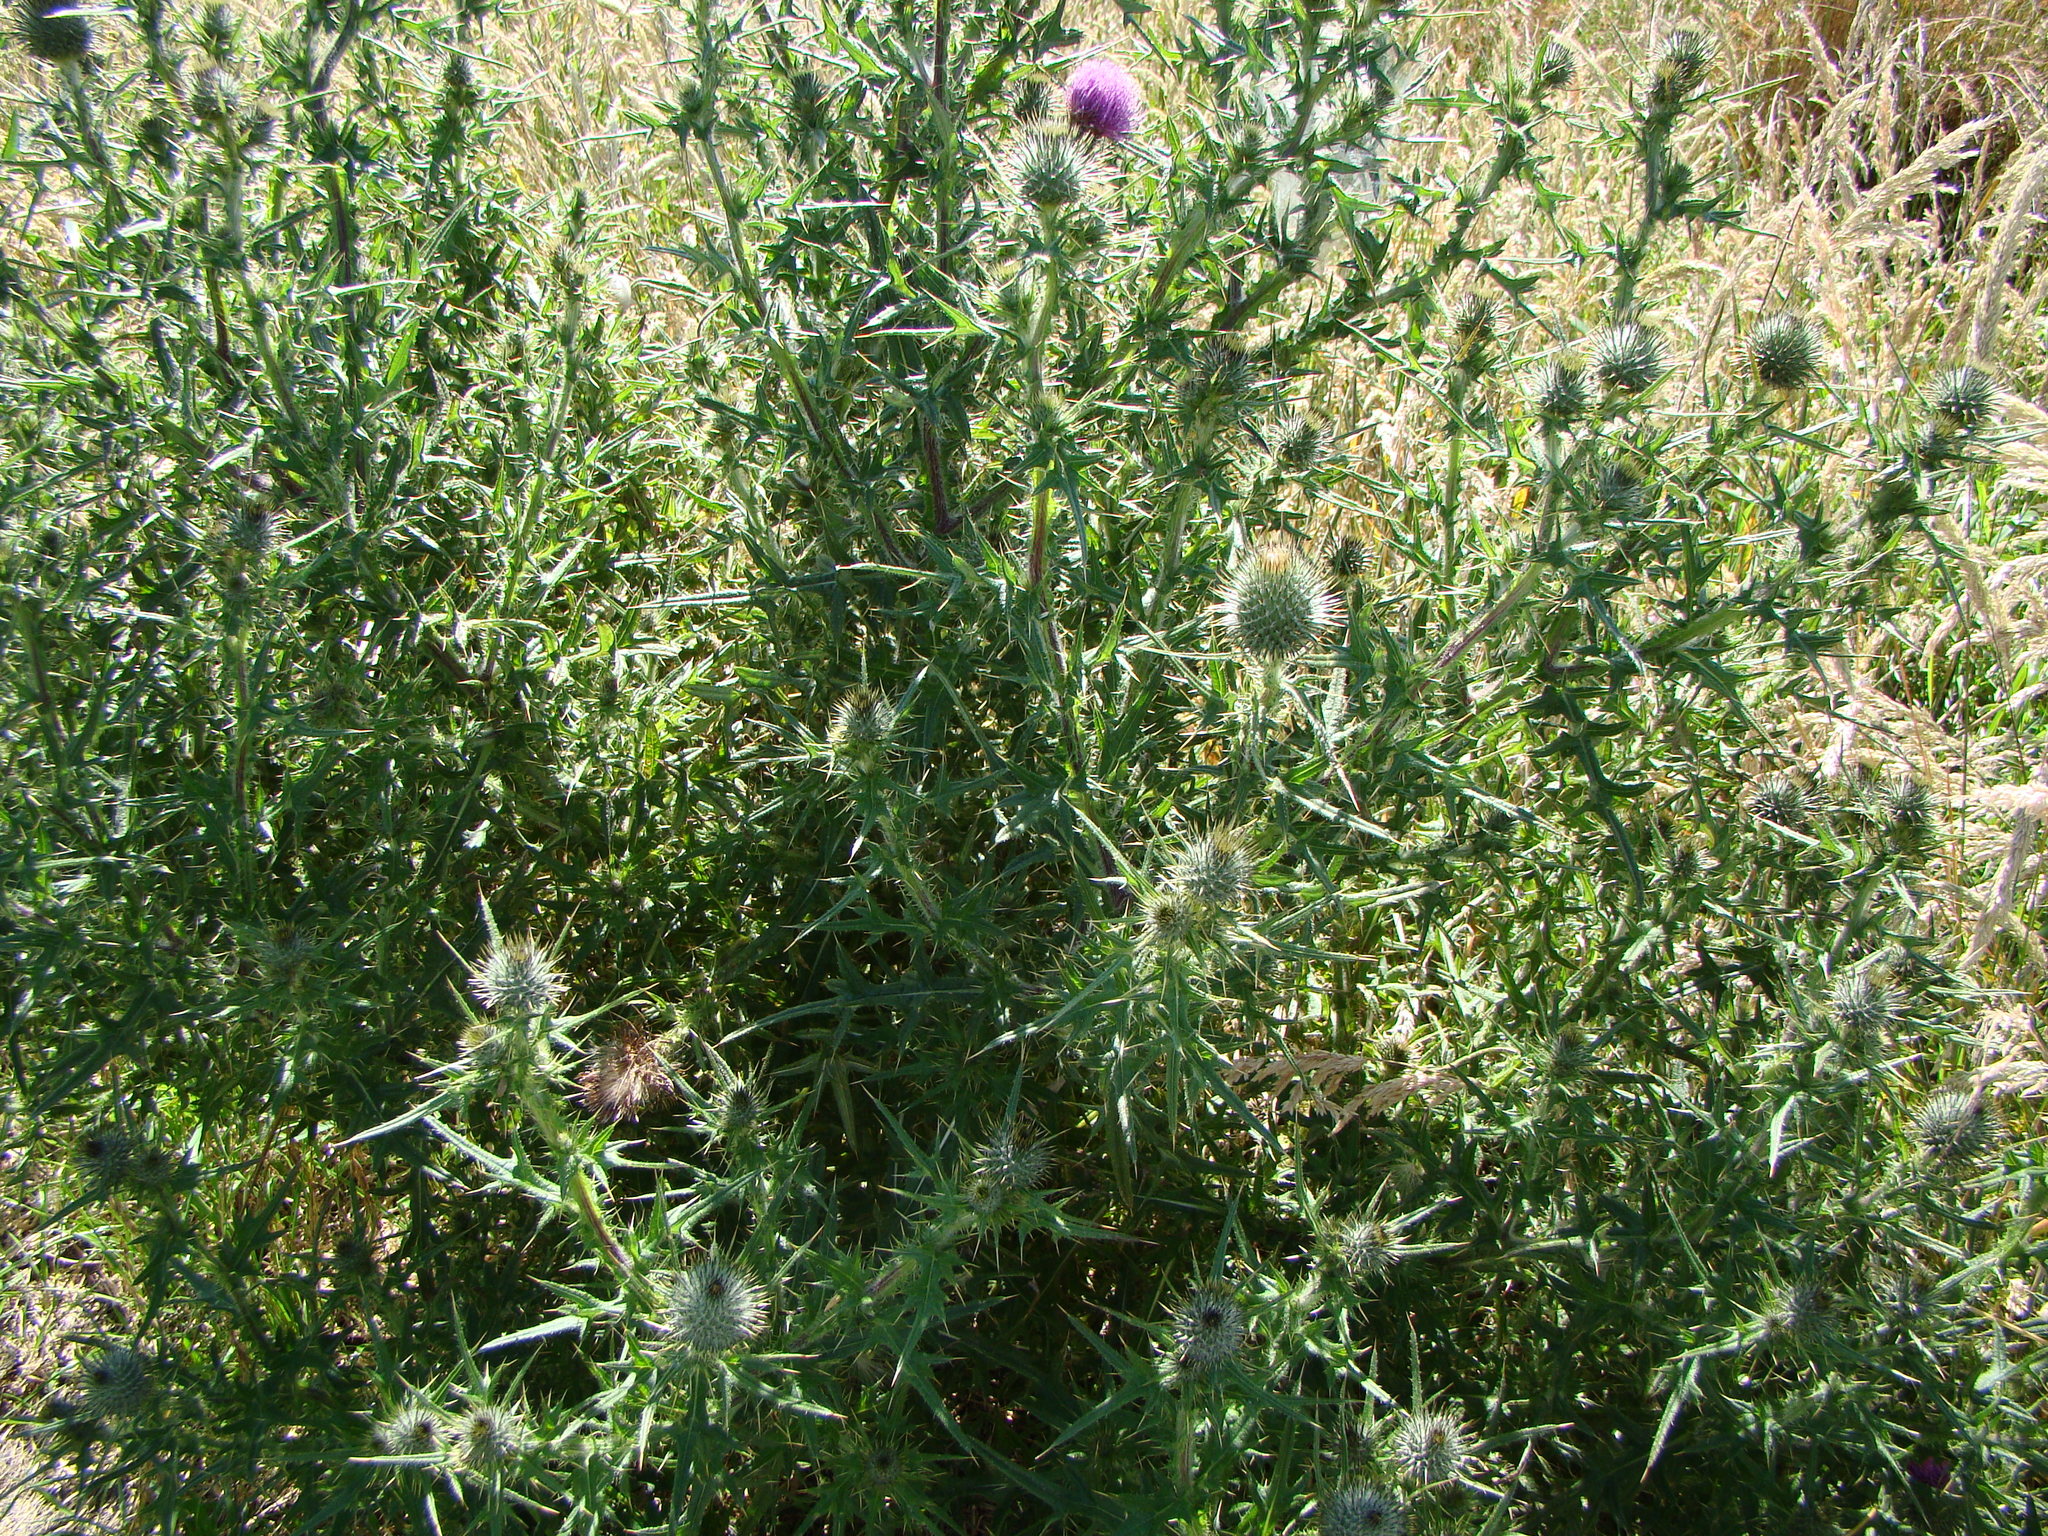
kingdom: Plantae
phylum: Tracheophyta
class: Magnoliopsida
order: Asterales
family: Asteraceae
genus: Cirsium
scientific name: Cirsium vulgare
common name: Bull thistle
